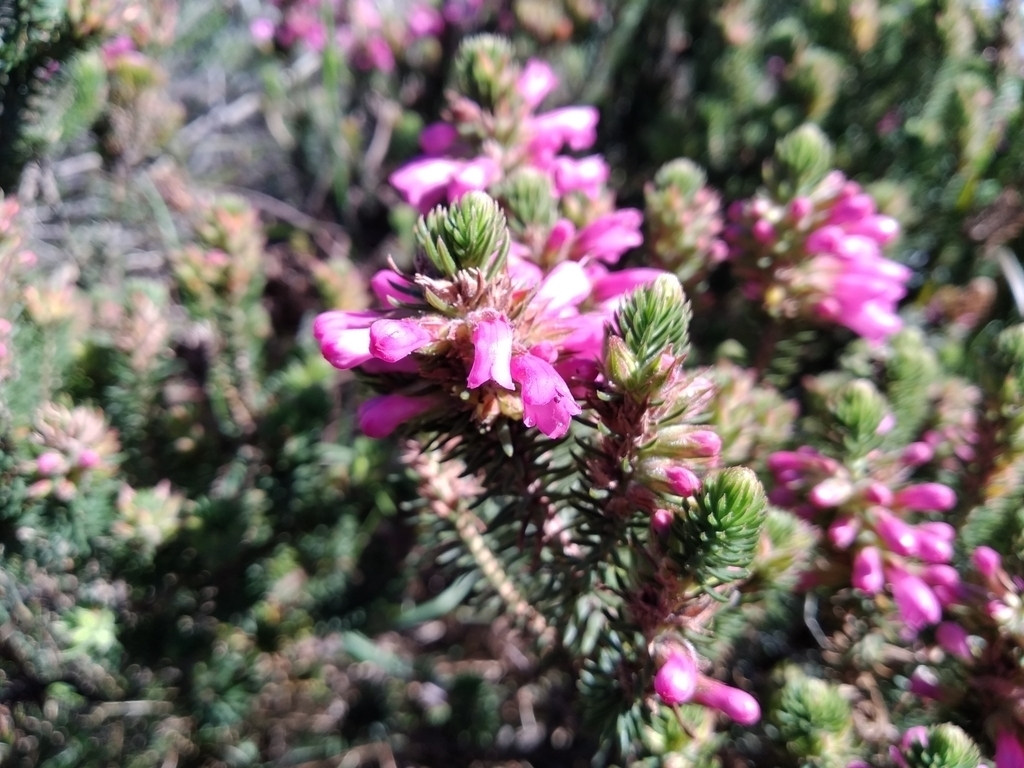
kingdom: Plantae
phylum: Tracheophyta
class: Magnoliopsida
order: Ericales
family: Ericaceae
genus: Erica
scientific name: Erica abietina
